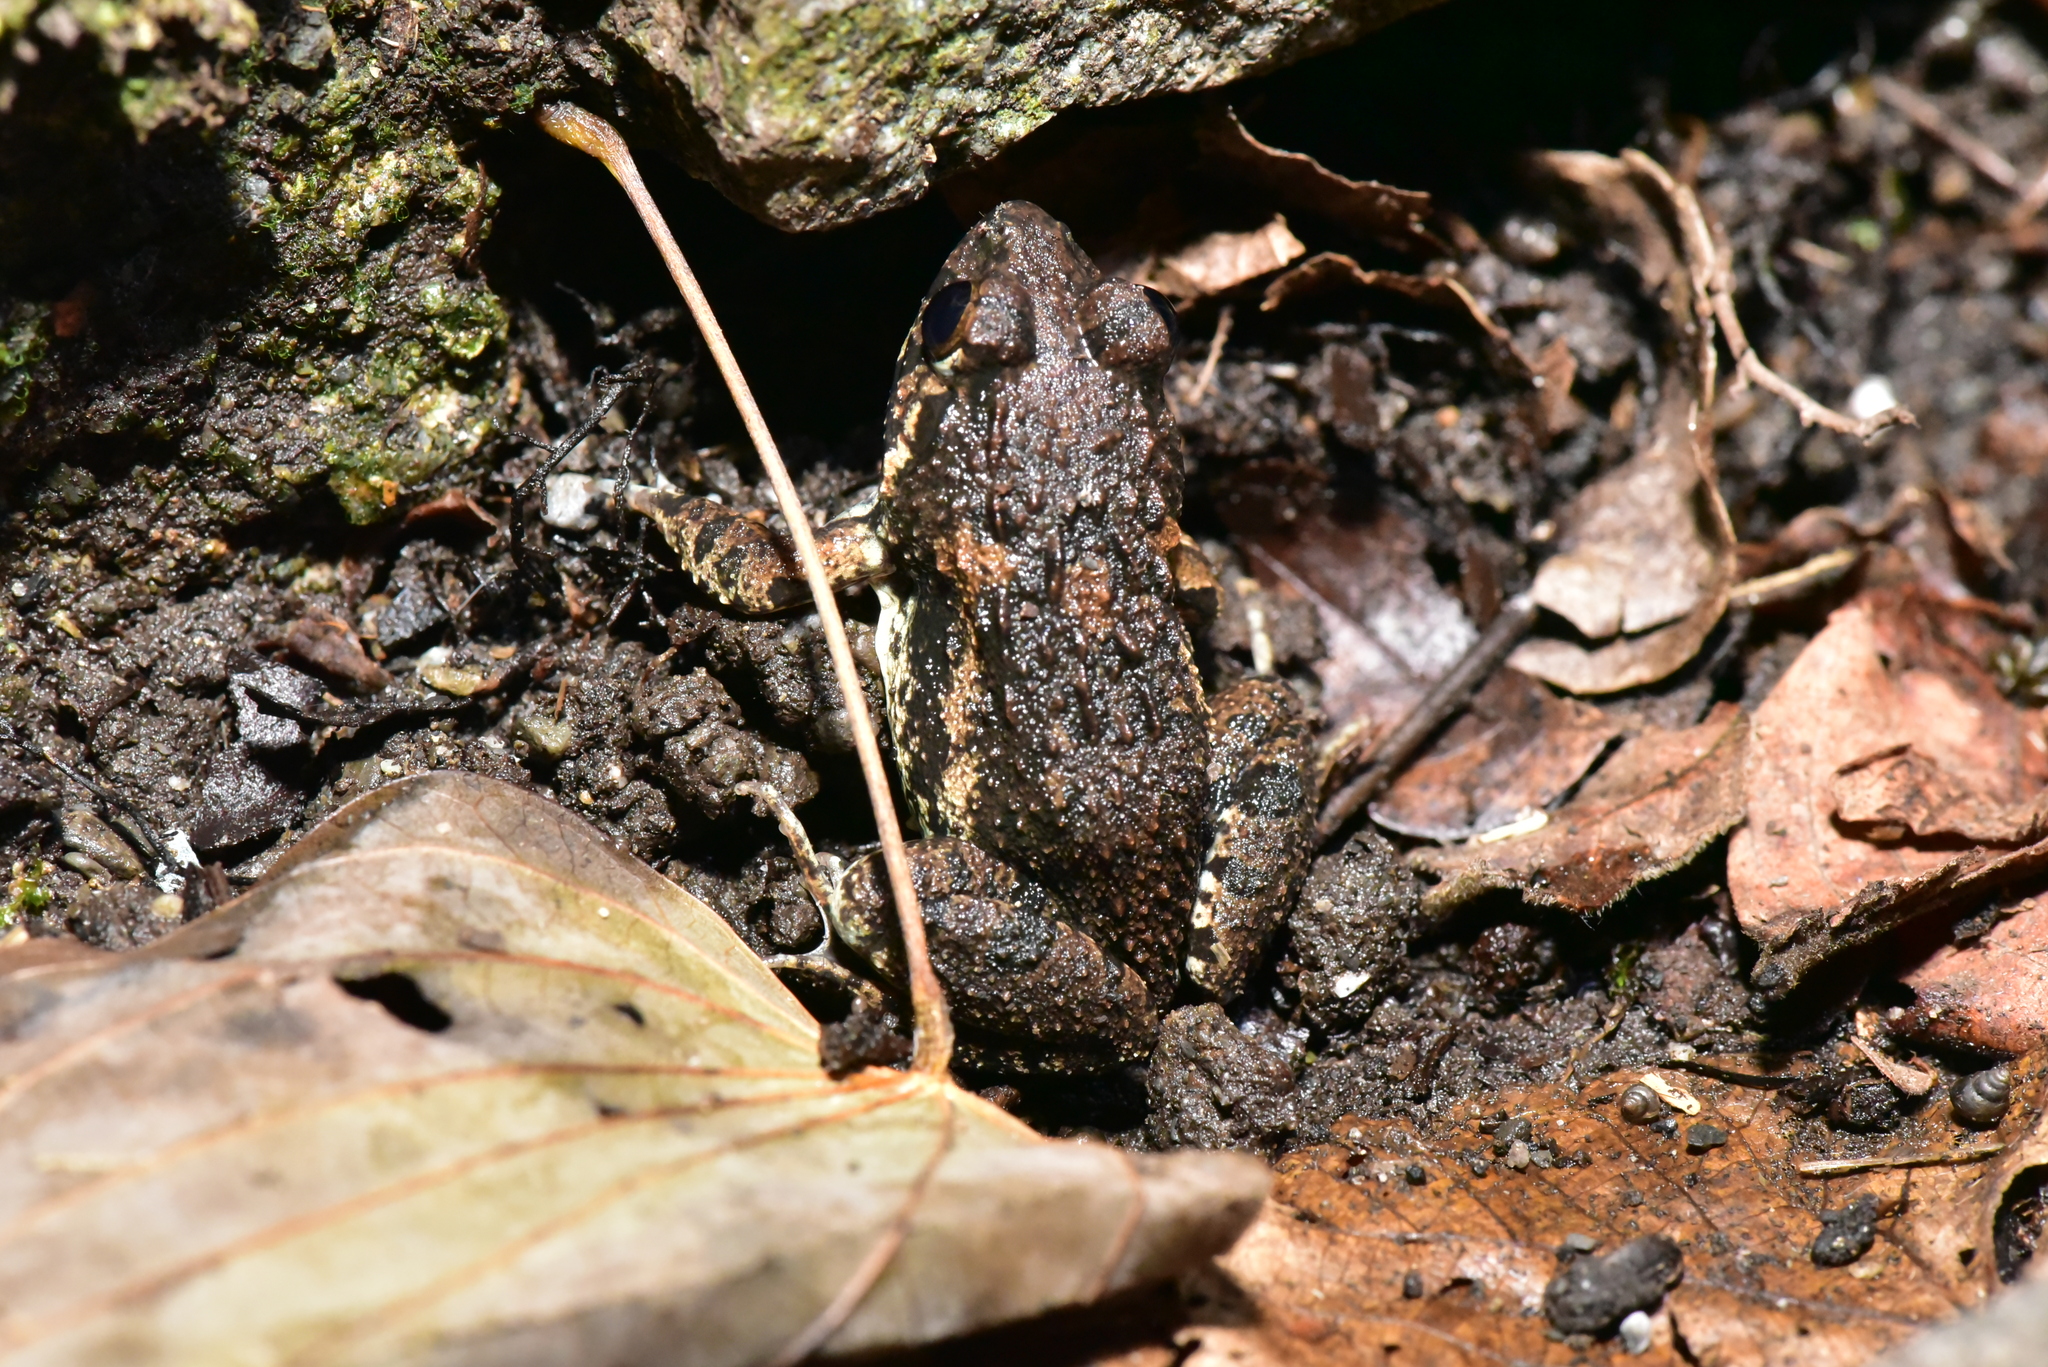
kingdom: Animalia
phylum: Chordata
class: Amphibia
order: Anura
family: Dicroglossidae
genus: Fejervarya
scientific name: Fejervarya limnocharis
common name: Asian grass frog/common pond frog/field frog/grass frog/indian rice frog
